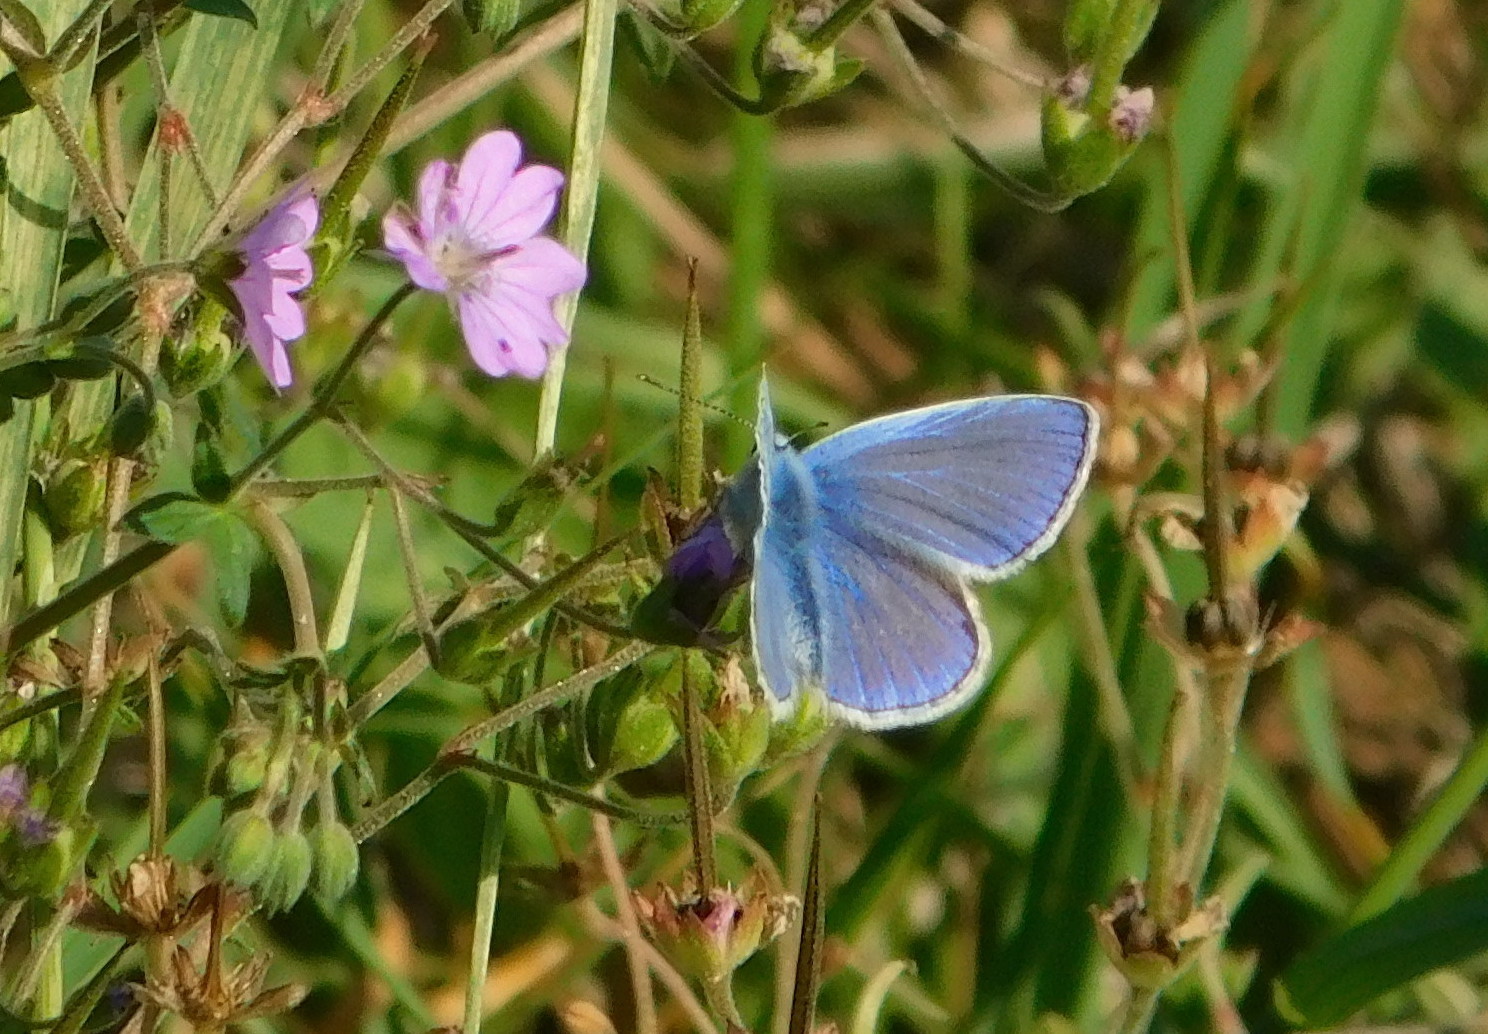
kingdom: Animalia
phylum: Arthropoda
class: Insecta
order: Lepidoptera
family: Lycaenidae
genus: Polyommatus
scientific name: Polyommatus icarus
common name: Common blue
